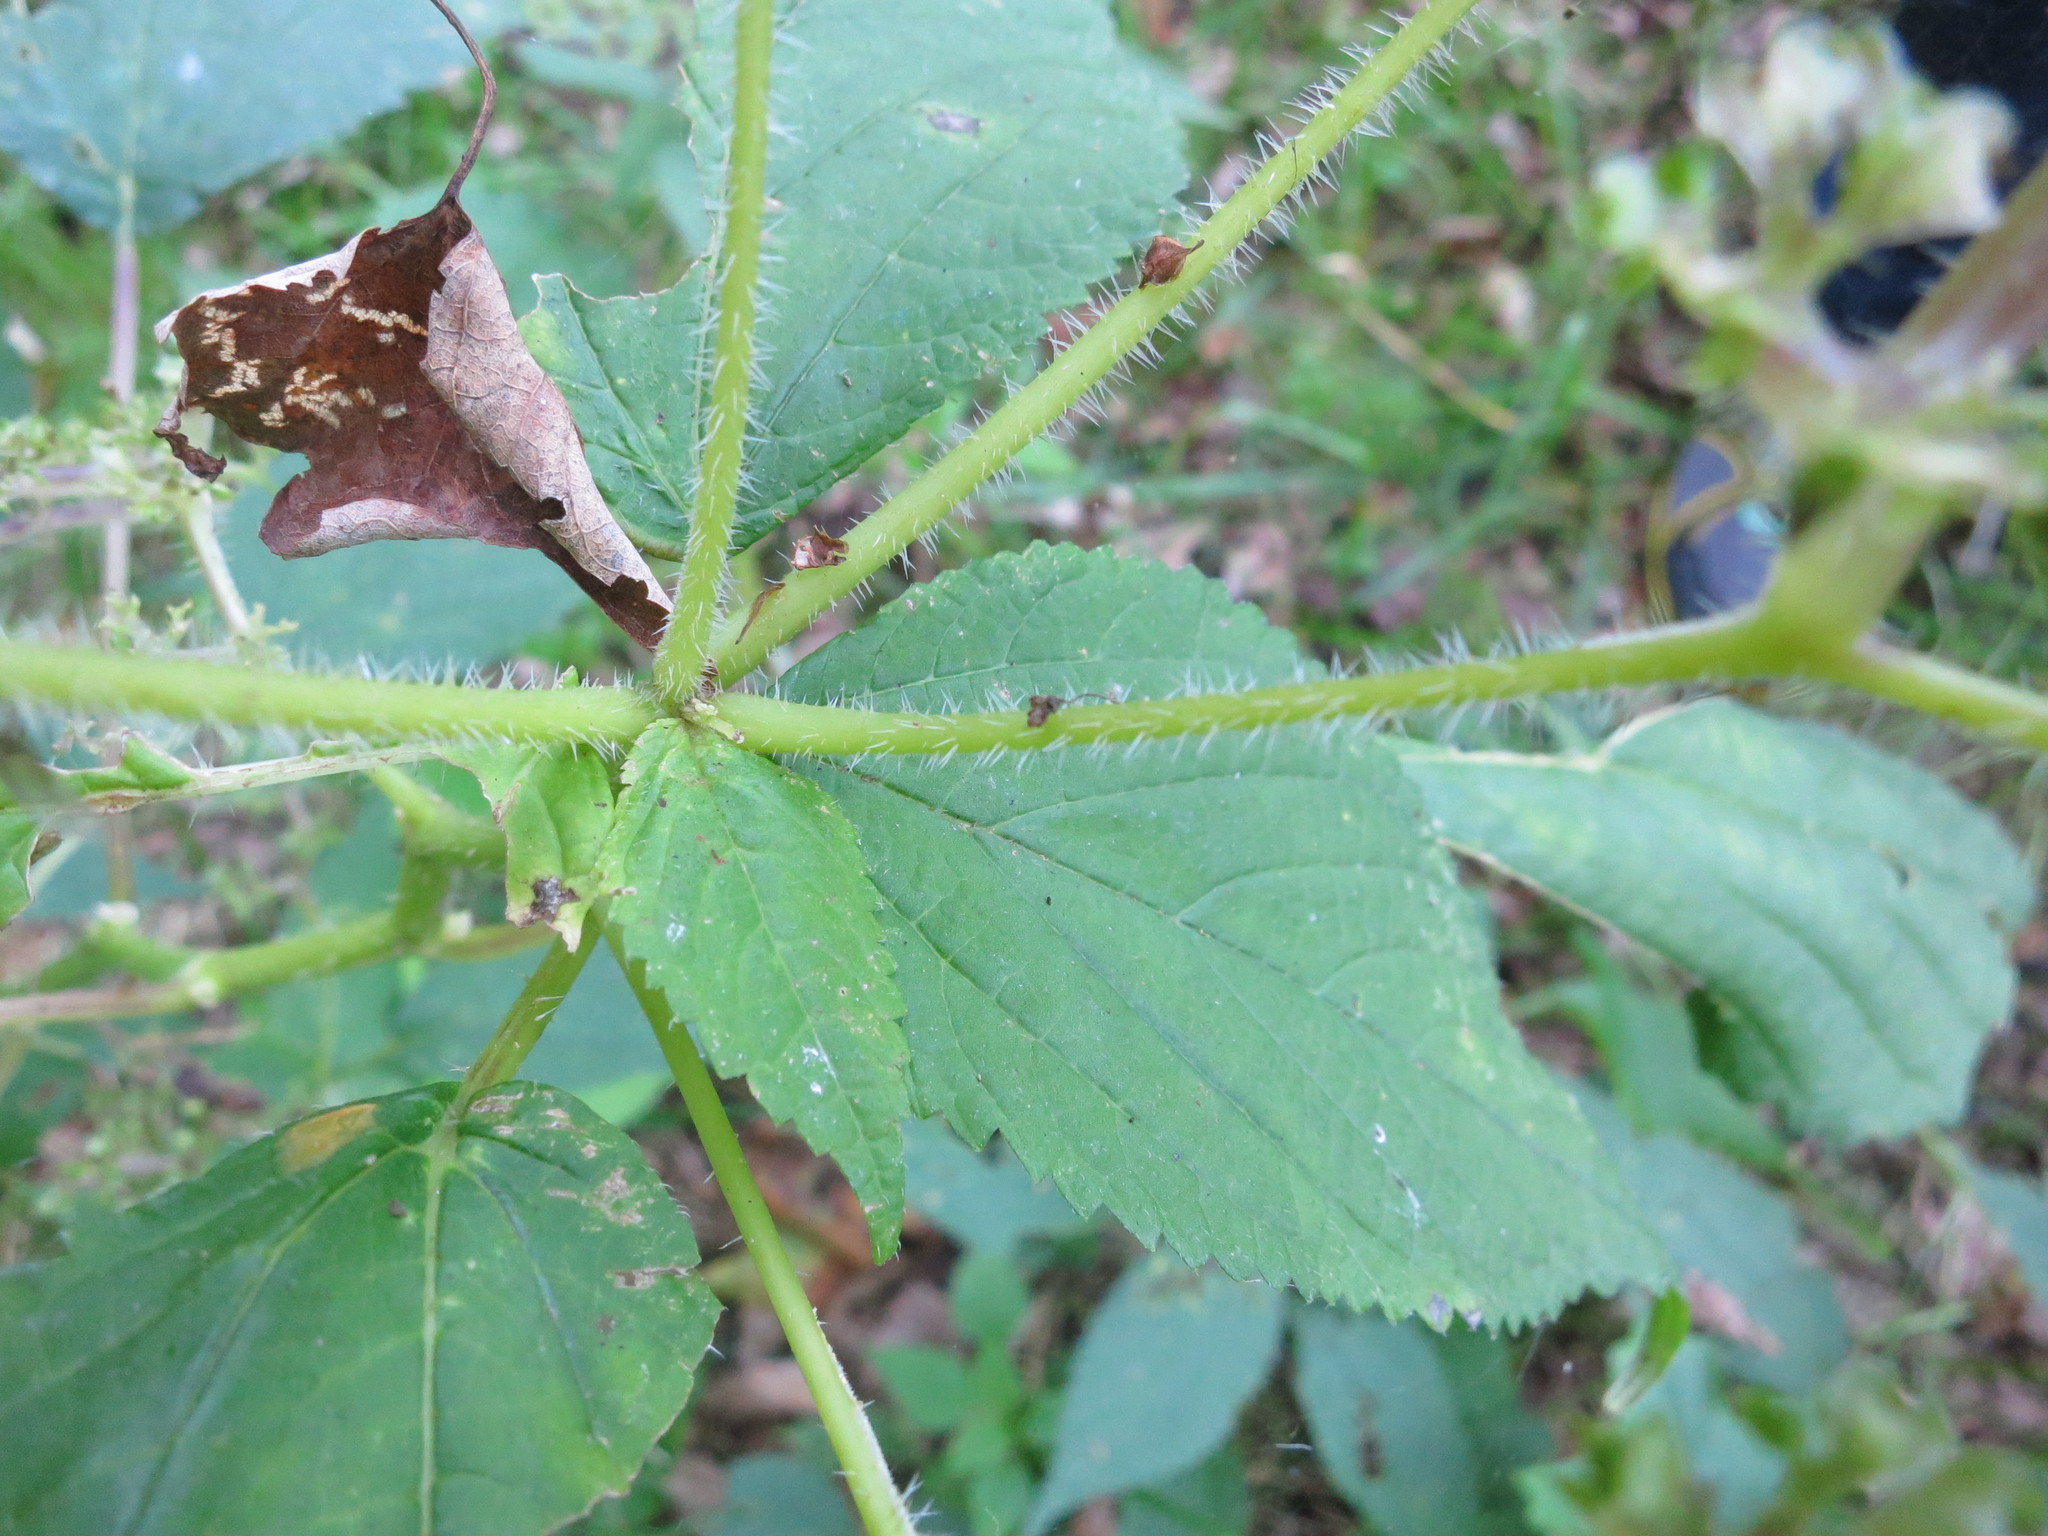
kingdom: Plantae
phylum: Tracheophyta
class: Magnoliopsida
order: Rosales
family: Urticaceae
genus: Laportea
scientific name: Laportea canadensis
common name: Canada nettle
